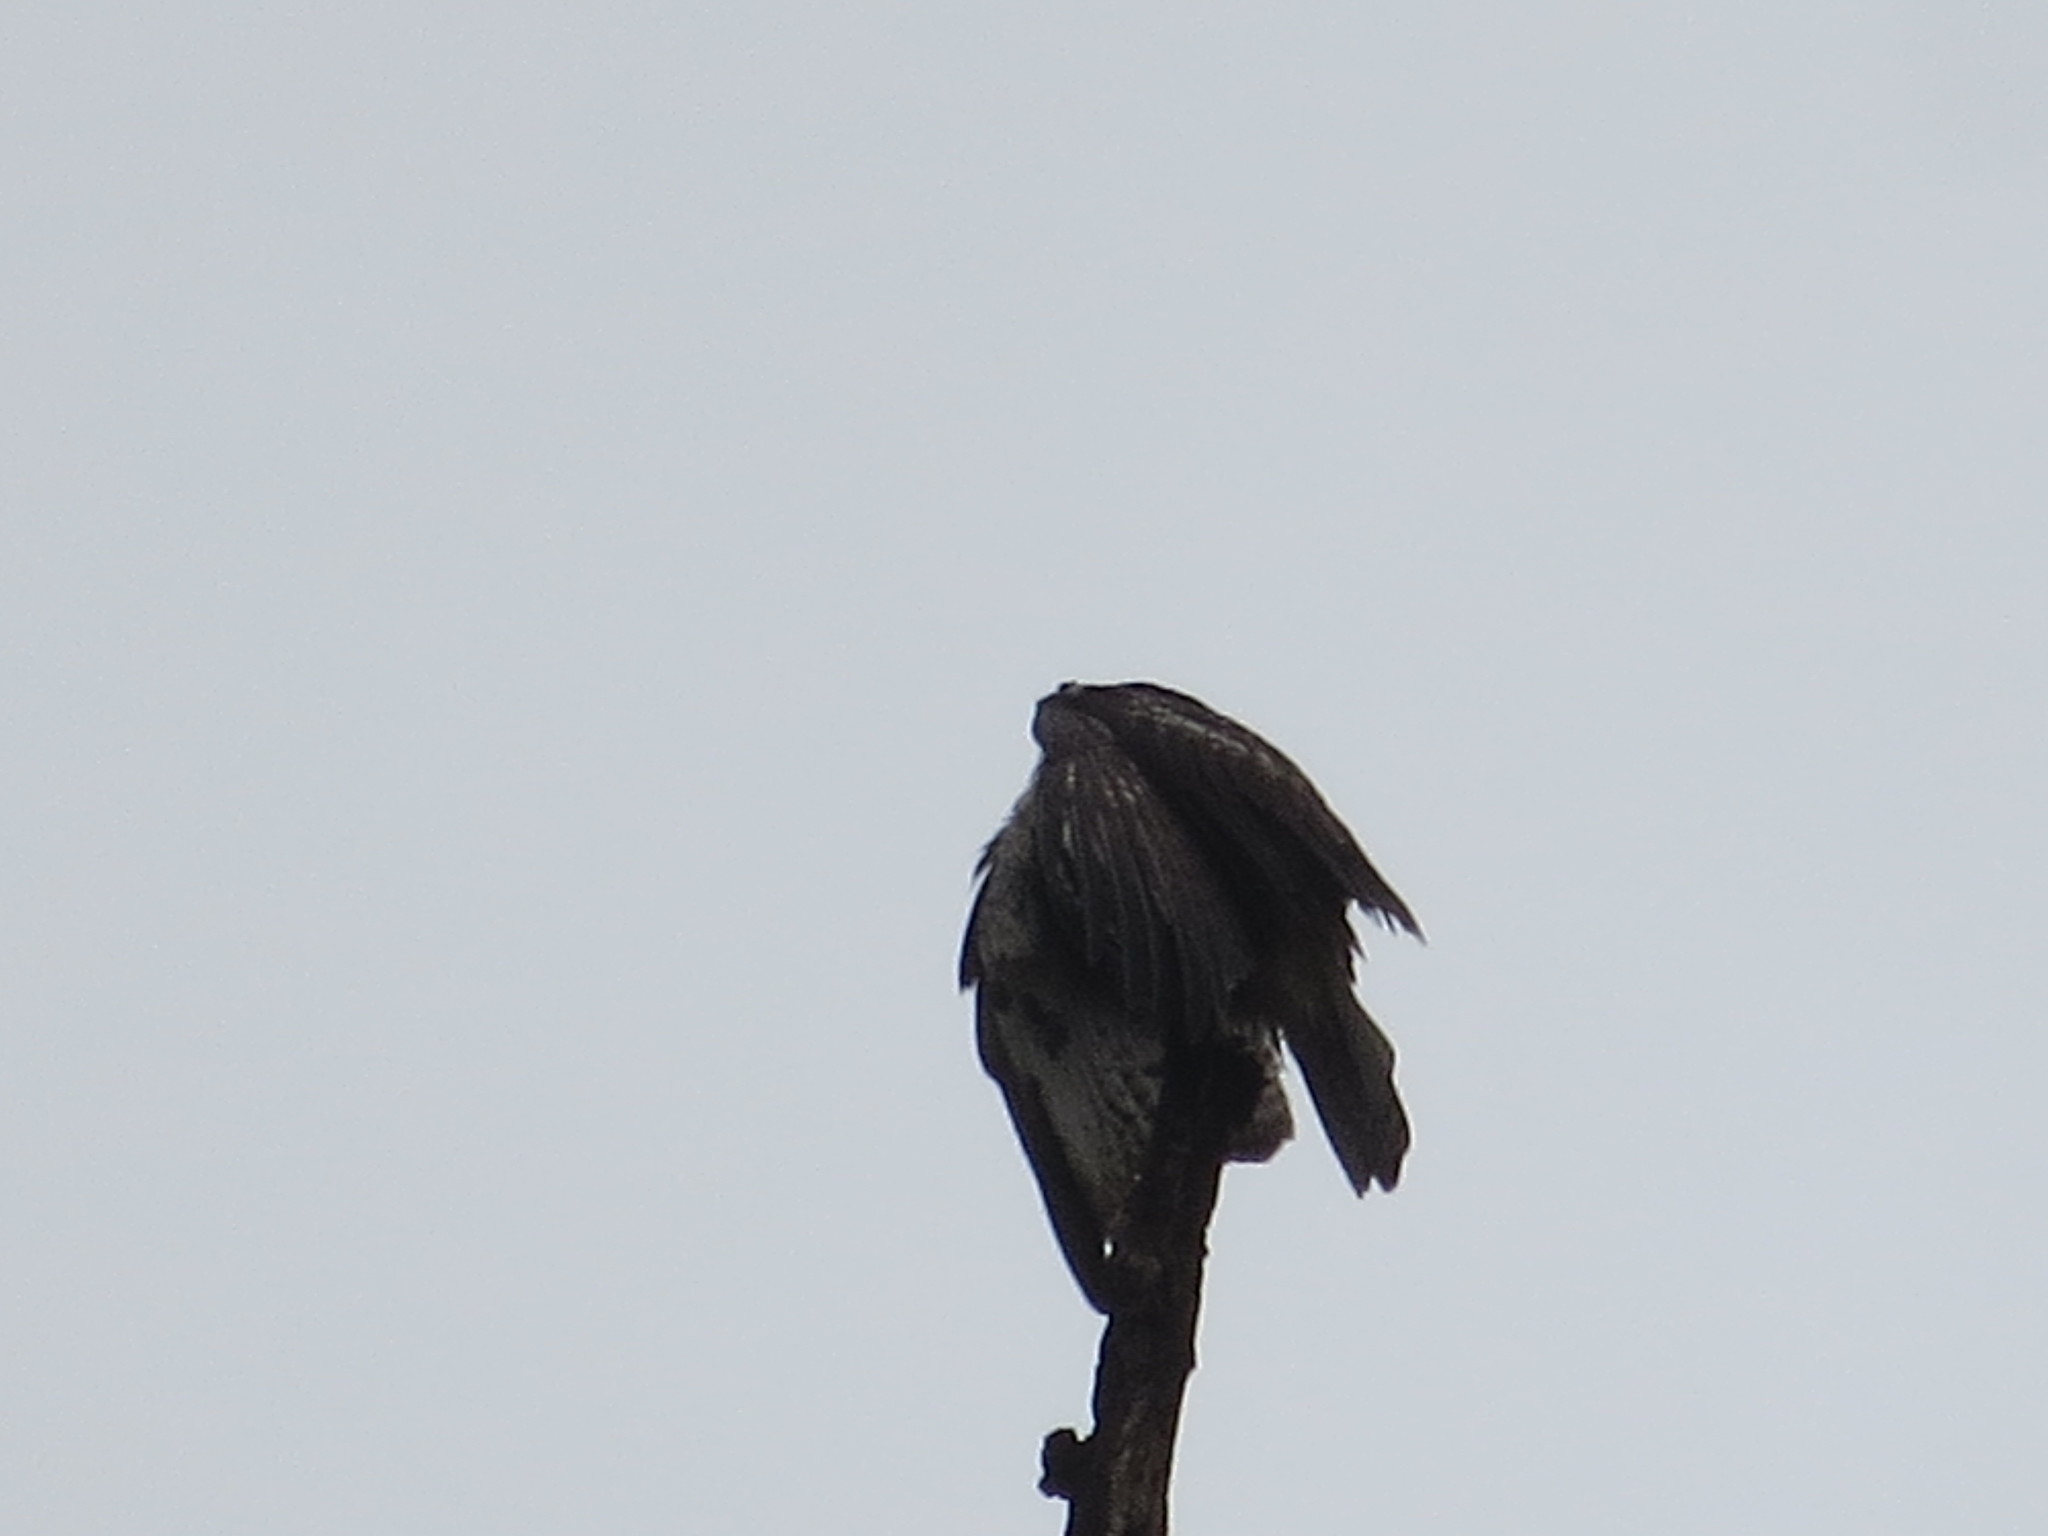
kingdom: Animalia
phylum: Chordata
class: Aves
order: Accipitriformes
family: Accipitridae
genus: Buteo
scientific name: Buteo jamaicensis
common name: Red-tailed hawk
